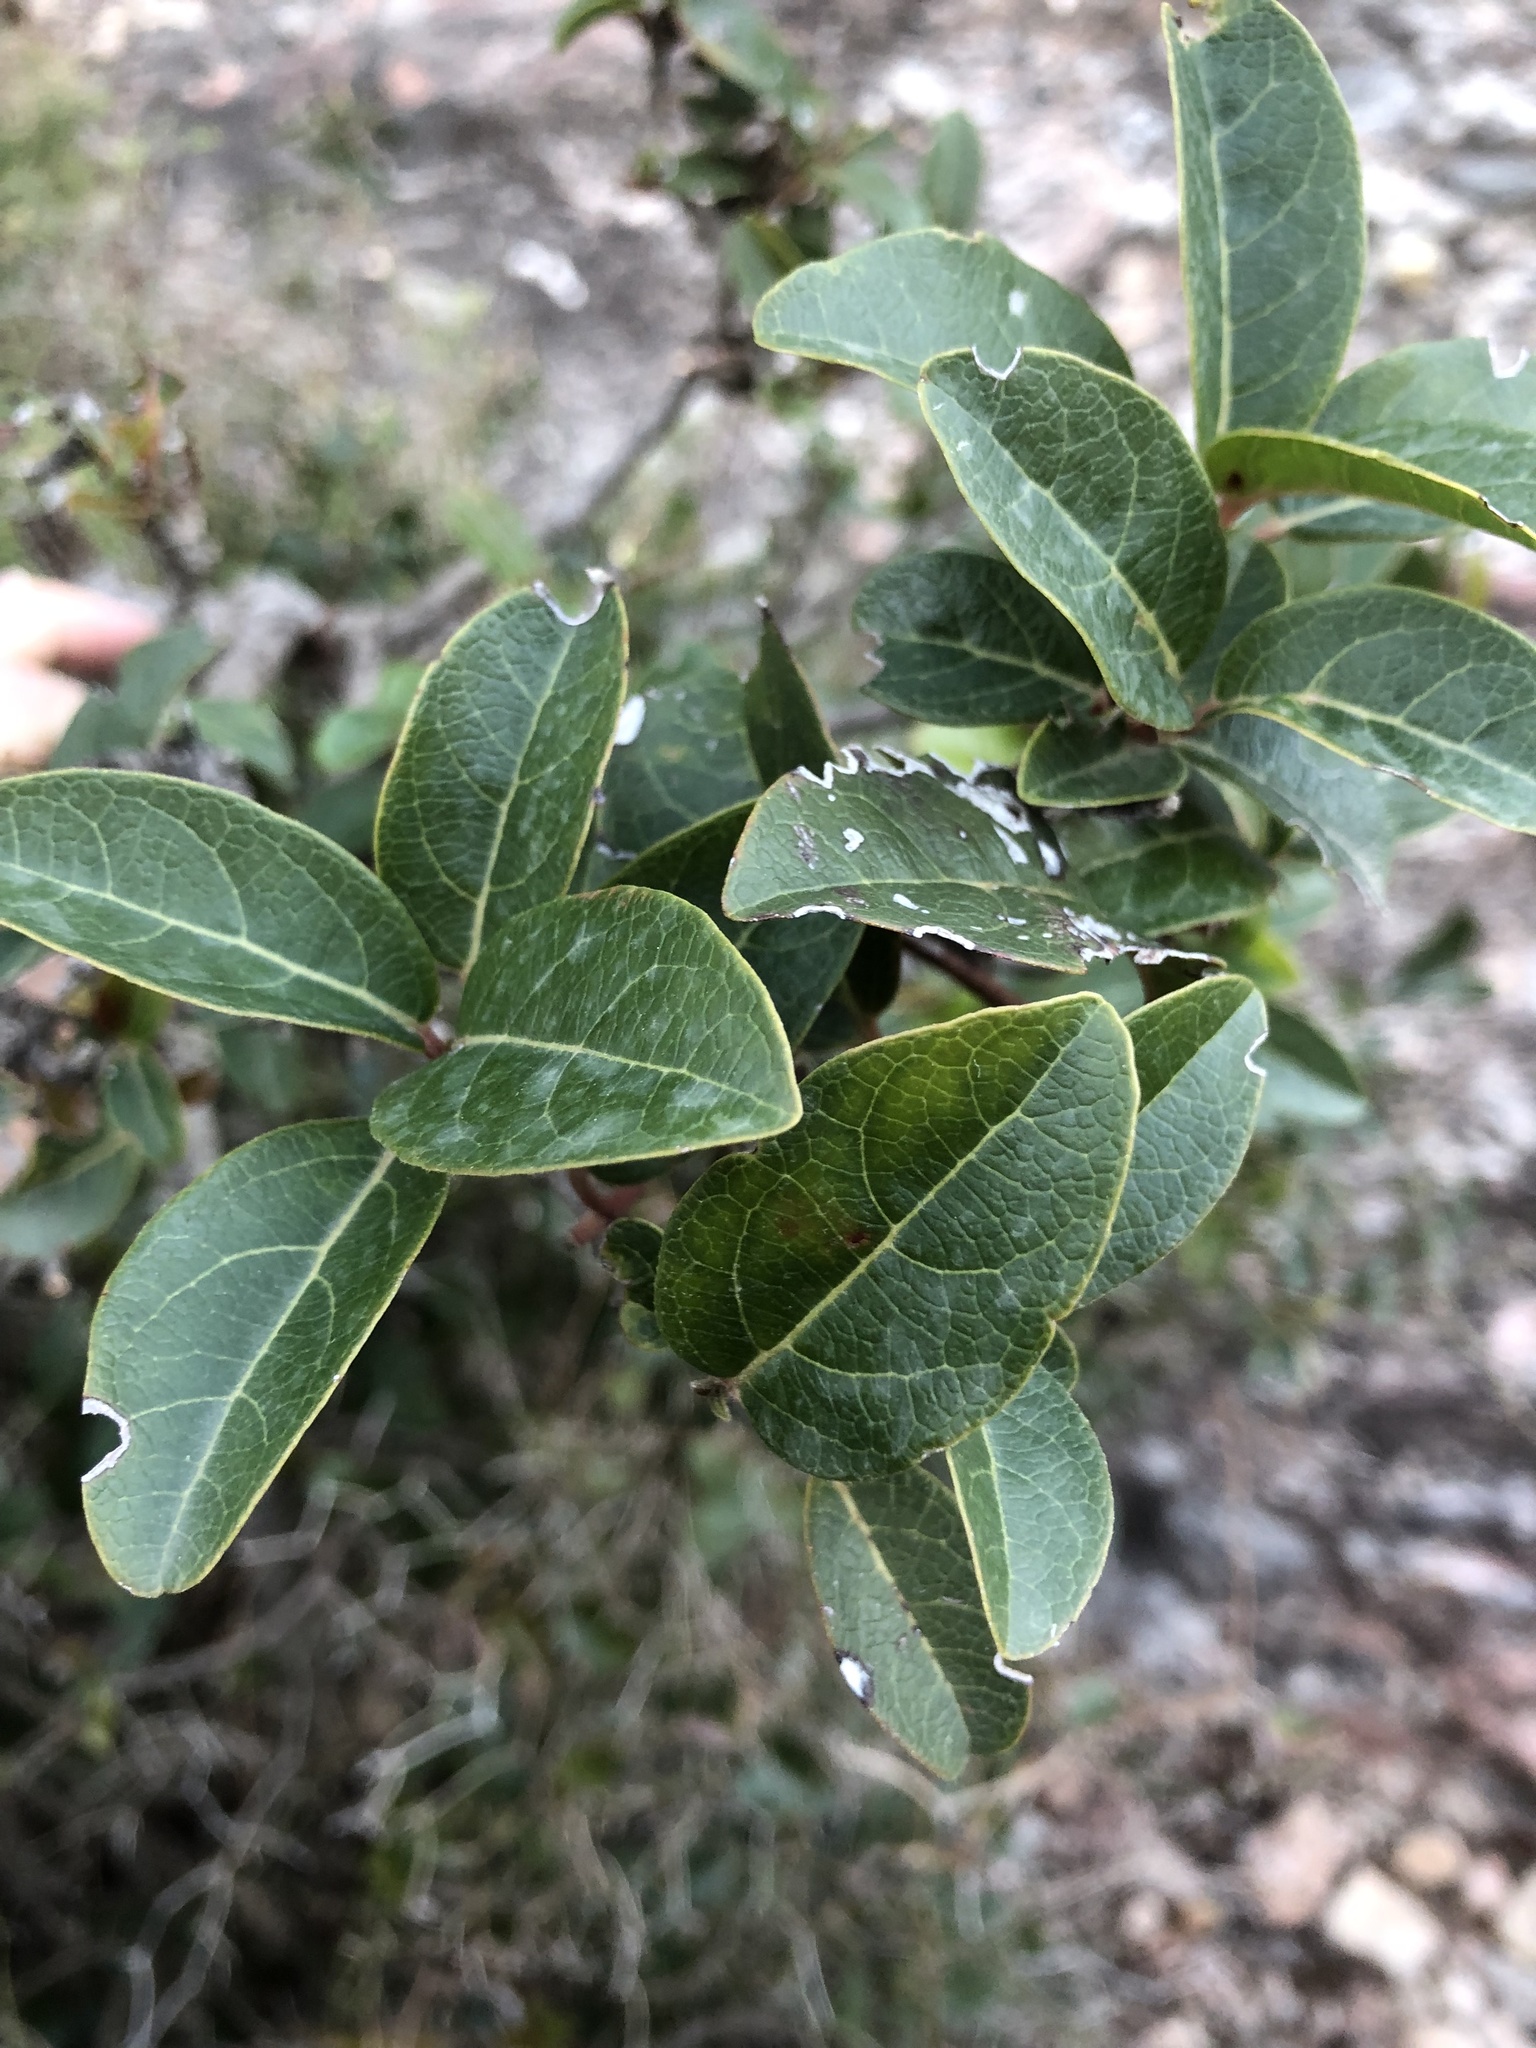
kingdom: Plantae
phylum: Tracheophyta
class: Magnoliopsida
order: Dipsacales
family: Viburnaceae
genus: Viburnum
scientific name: Viburnum tinus
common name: Laurustinus
